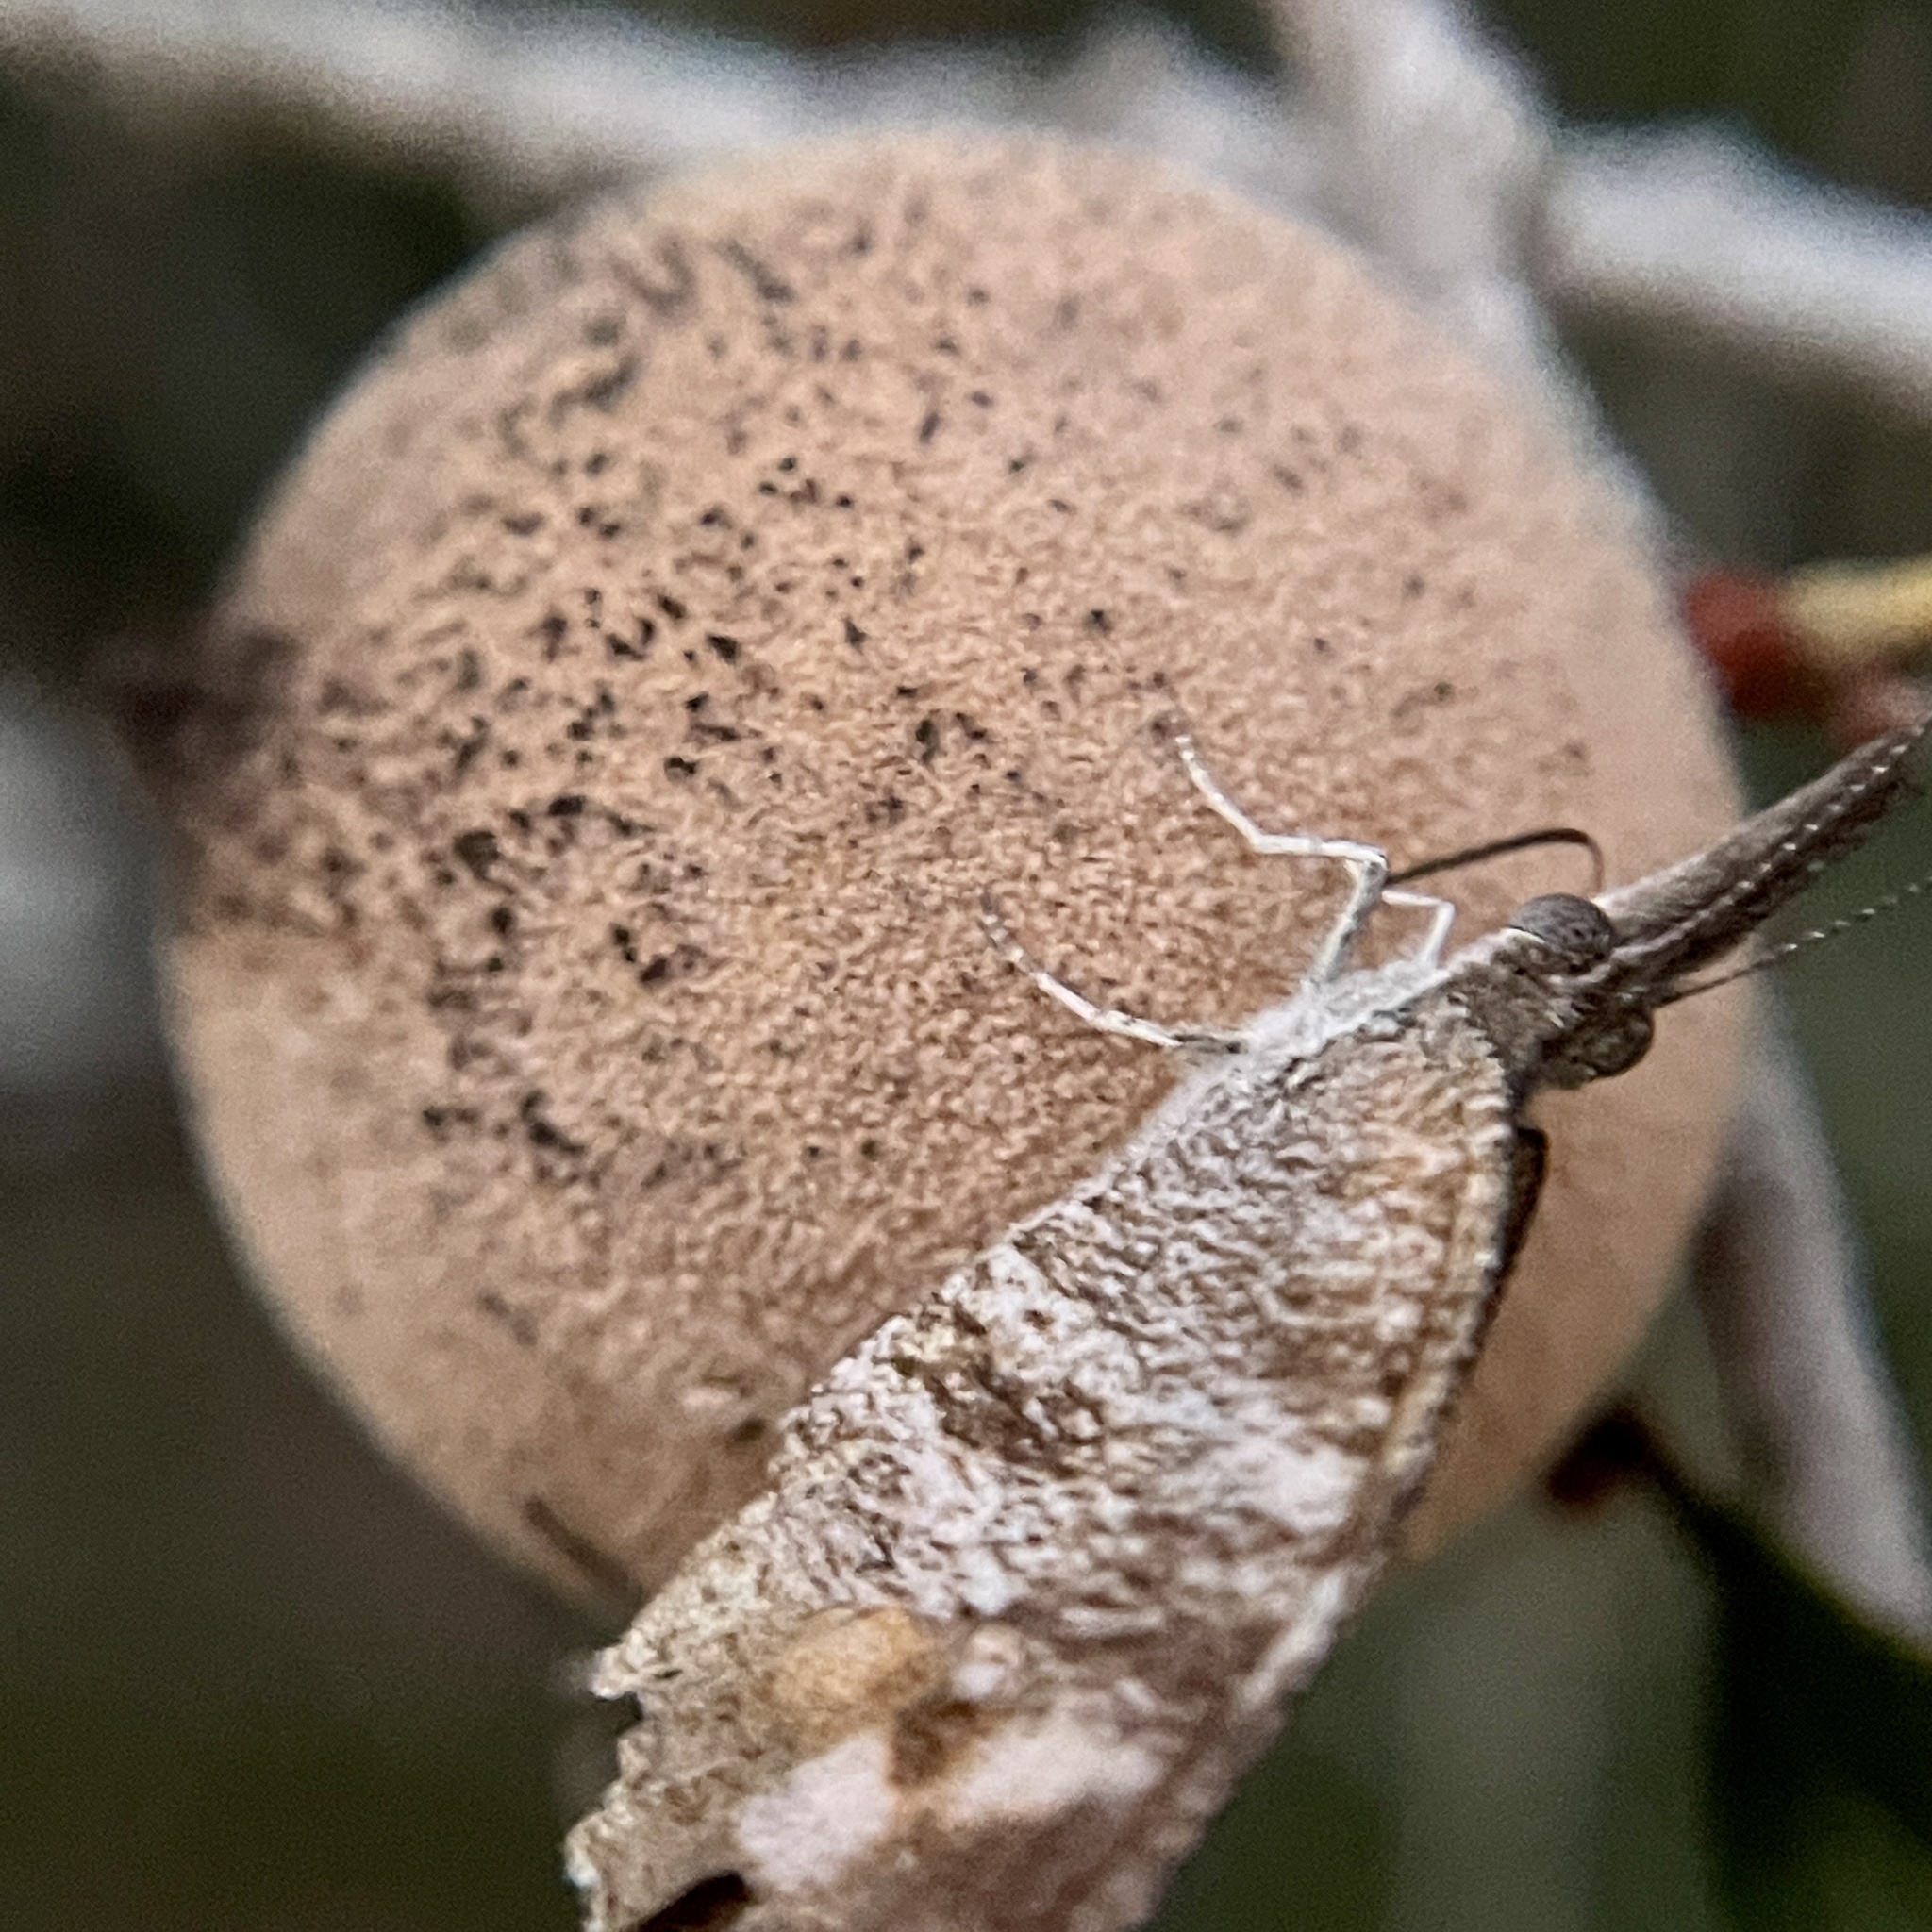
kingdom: Animalia
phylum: Arthropoda
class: Insecta
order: Hymenoptera
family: Cynipidae
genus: Disholcaspis
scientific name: Disholcaspis
